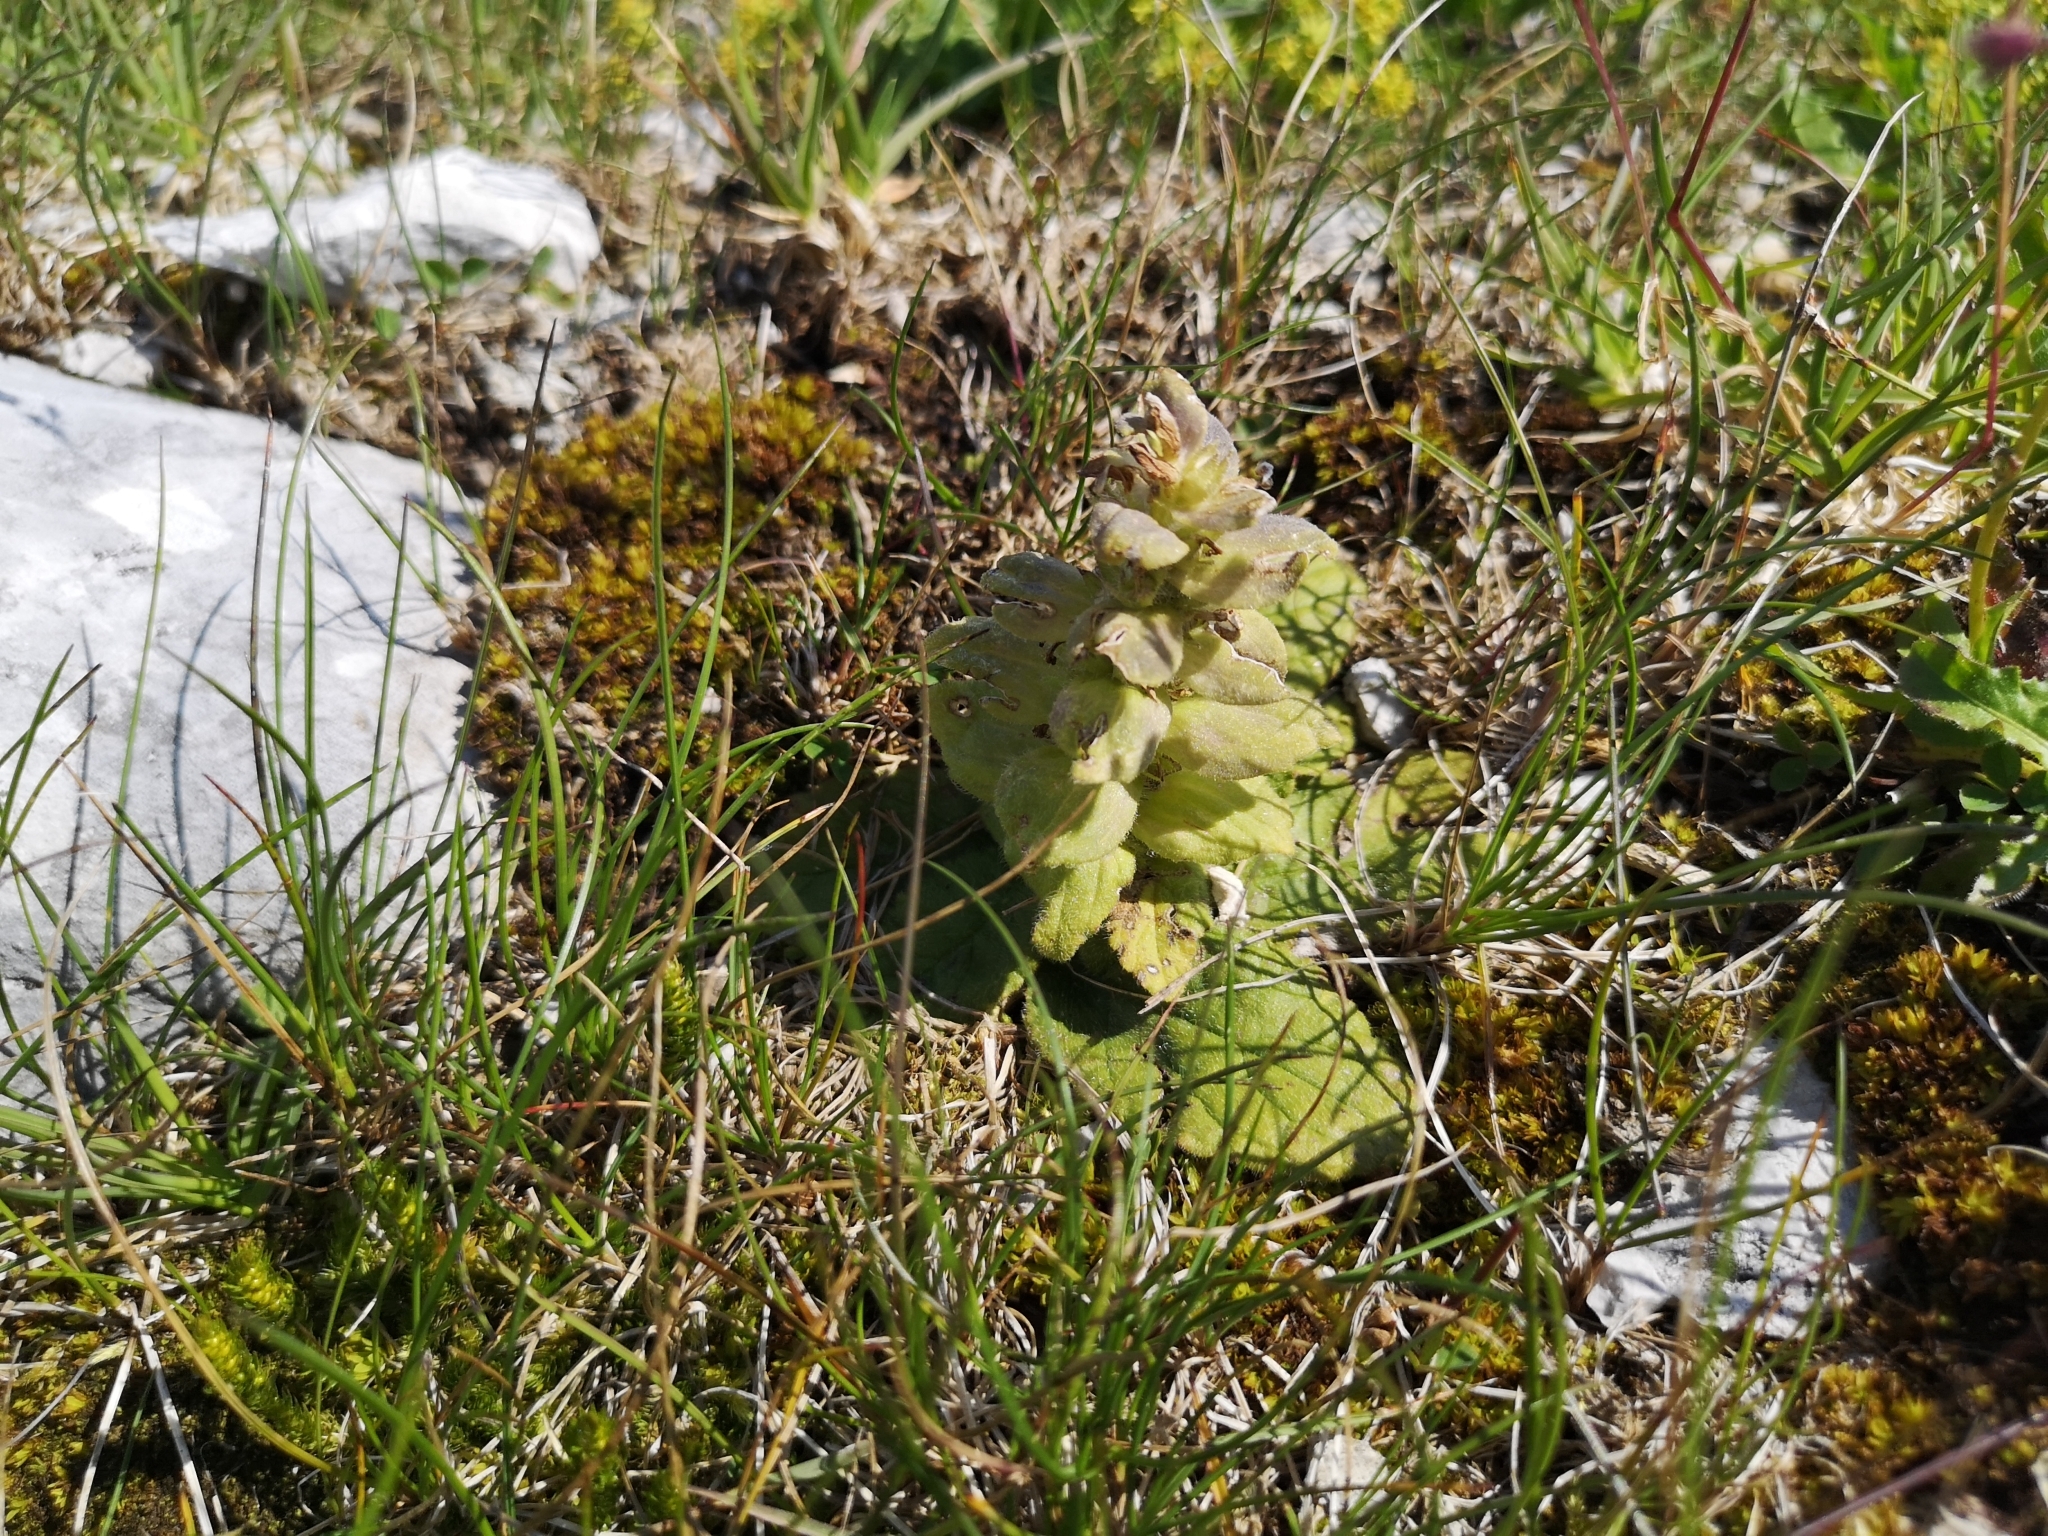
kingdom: Plantae
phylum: Tracheophyta
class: Magnoliopsida
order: Lamiales
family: Lamiaceae
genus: Ajuga
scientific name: Ajuga pyramidalis
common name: Pyramid bugle
